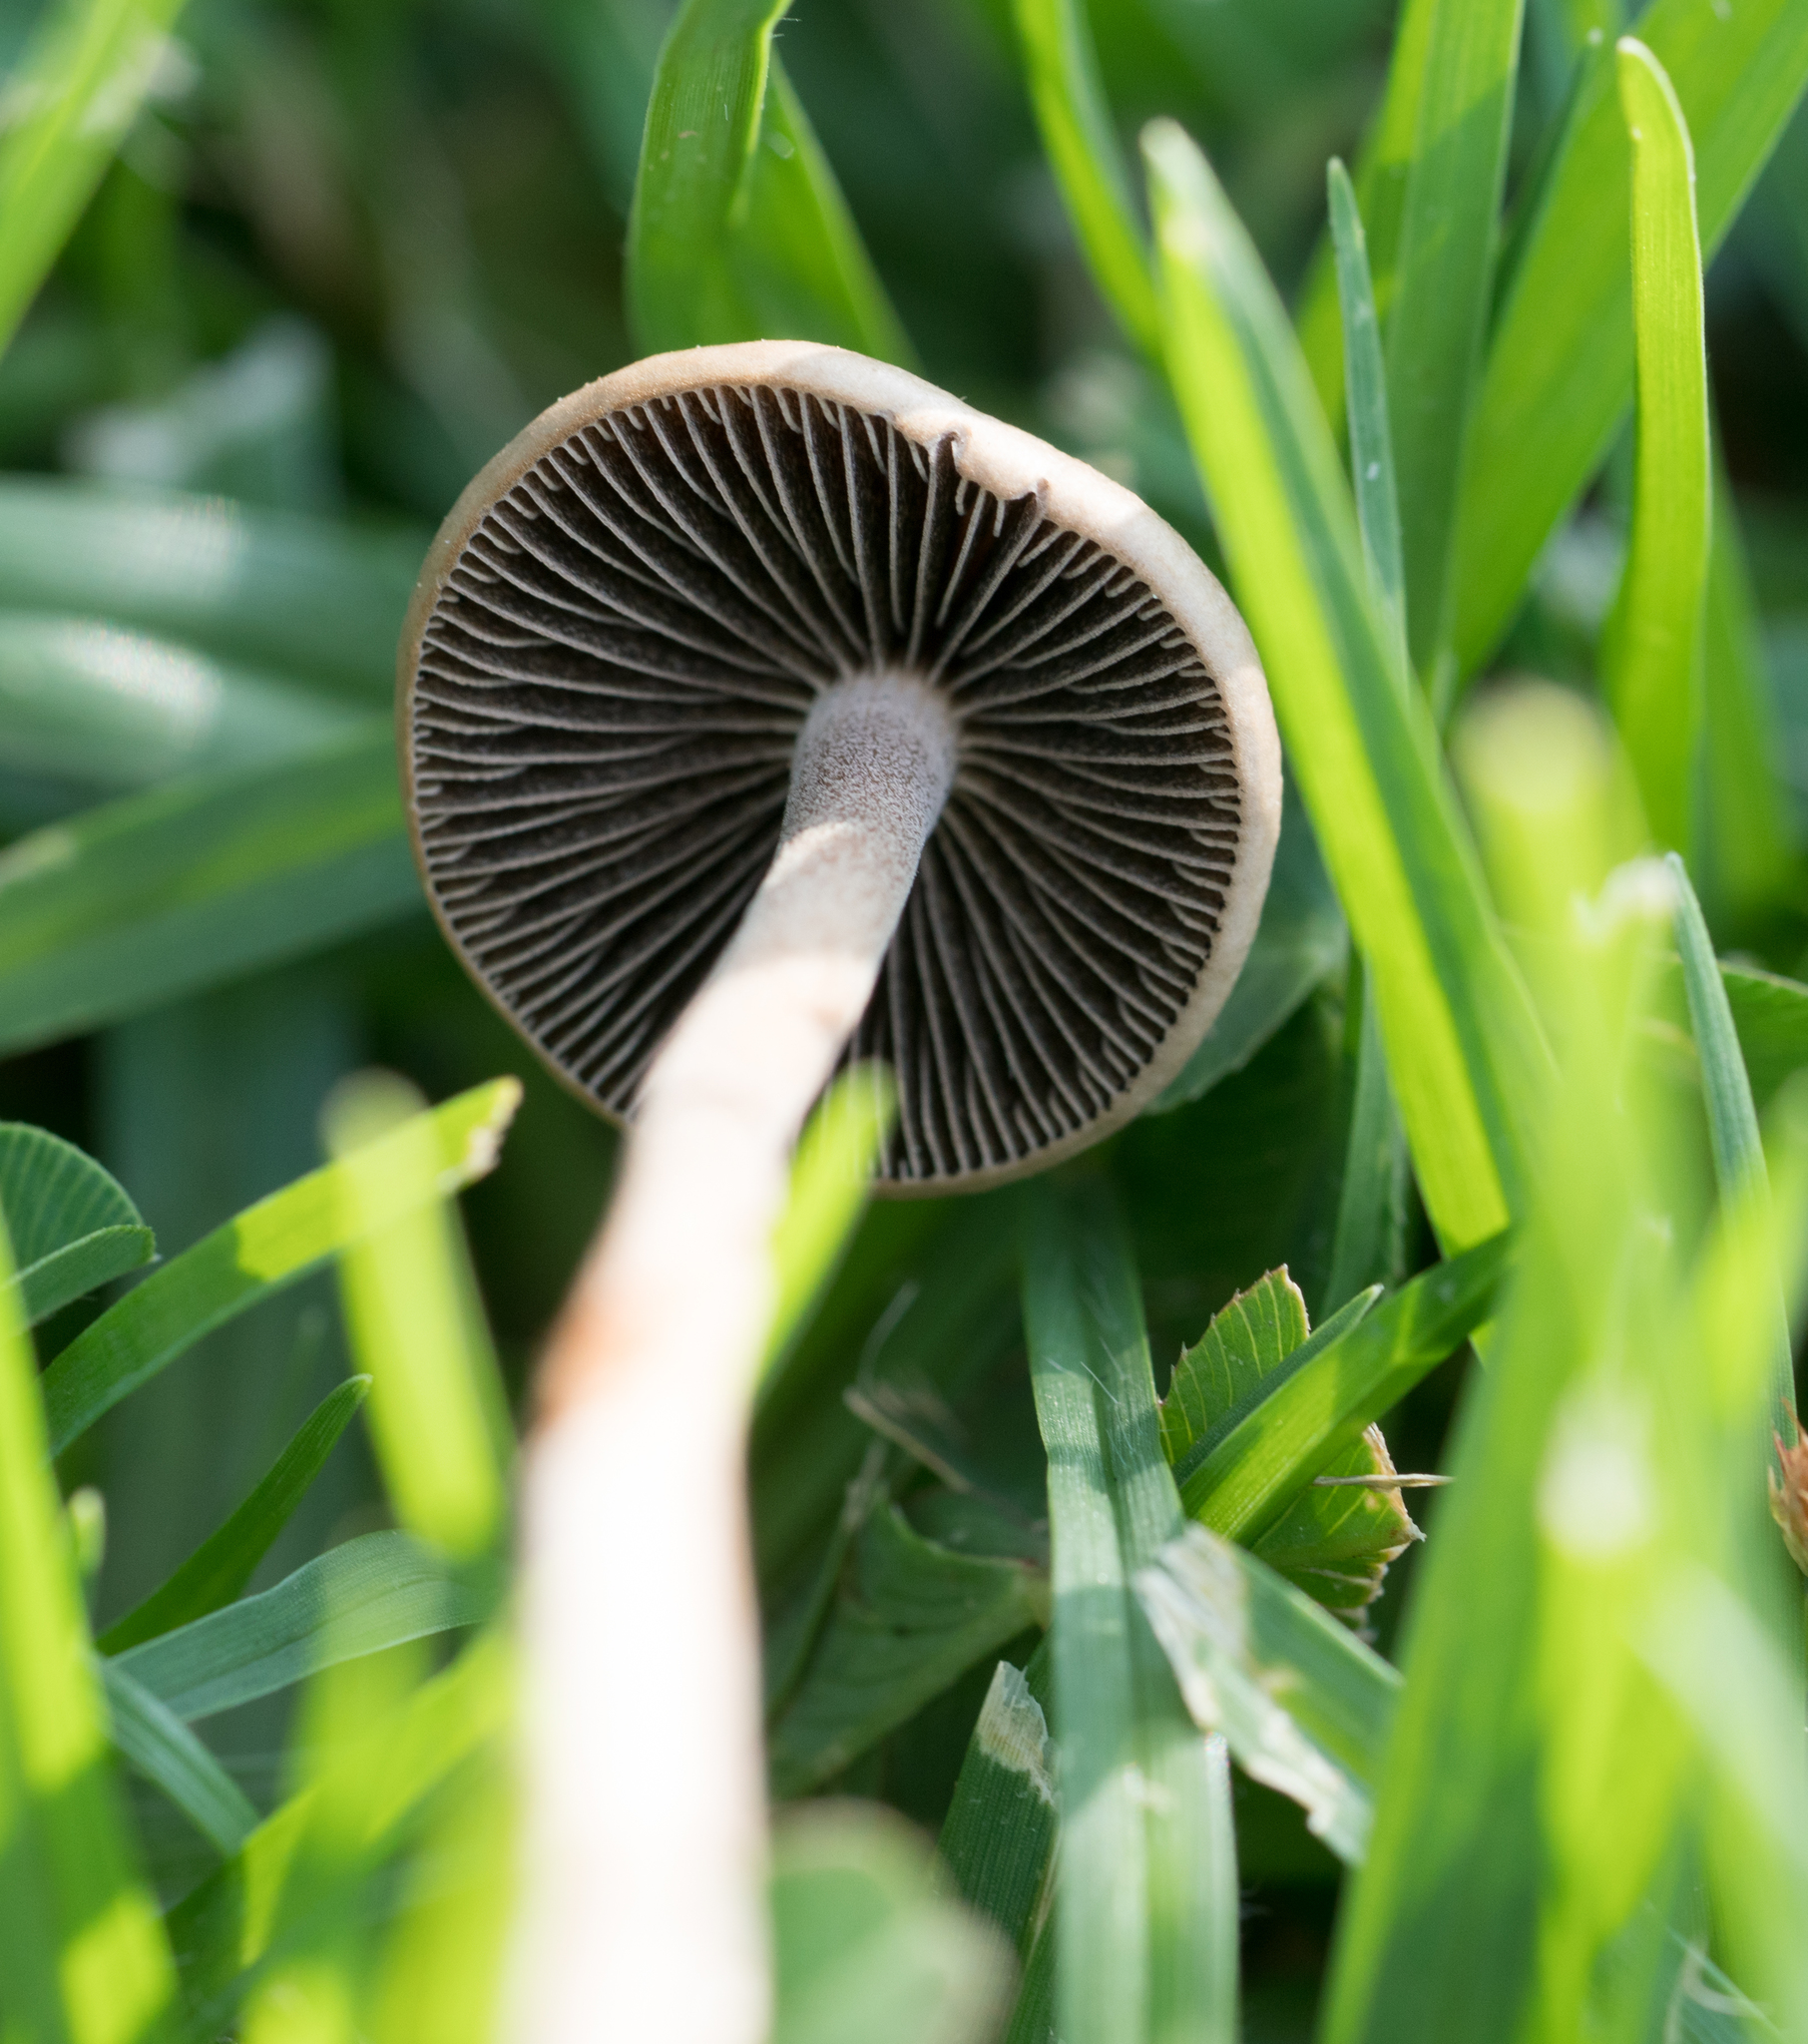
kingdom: Fungi
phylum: Basidiomycota
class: Agaricomycetes
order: Agaricales
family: Bolbitiaceae
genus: Panaeolina
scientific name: Panaeolina foenisecii
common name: Brown hay cap
